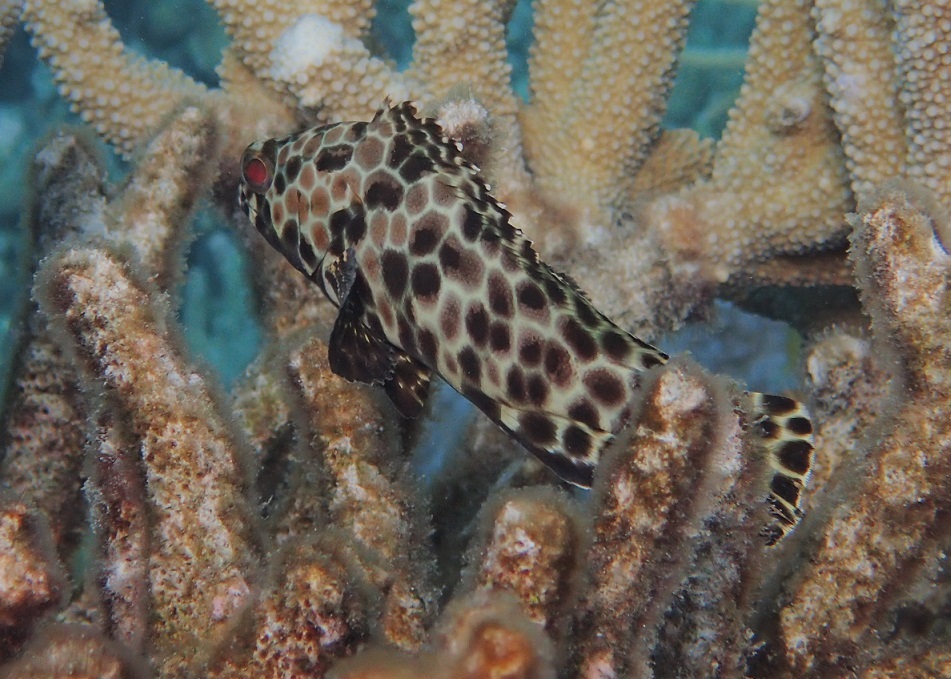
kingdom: Animalia
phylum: Chordata
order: Perciformes
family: Serranidae
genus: Epinephelus
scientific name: Epinephelus quoyanus
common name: Longfin grouper
